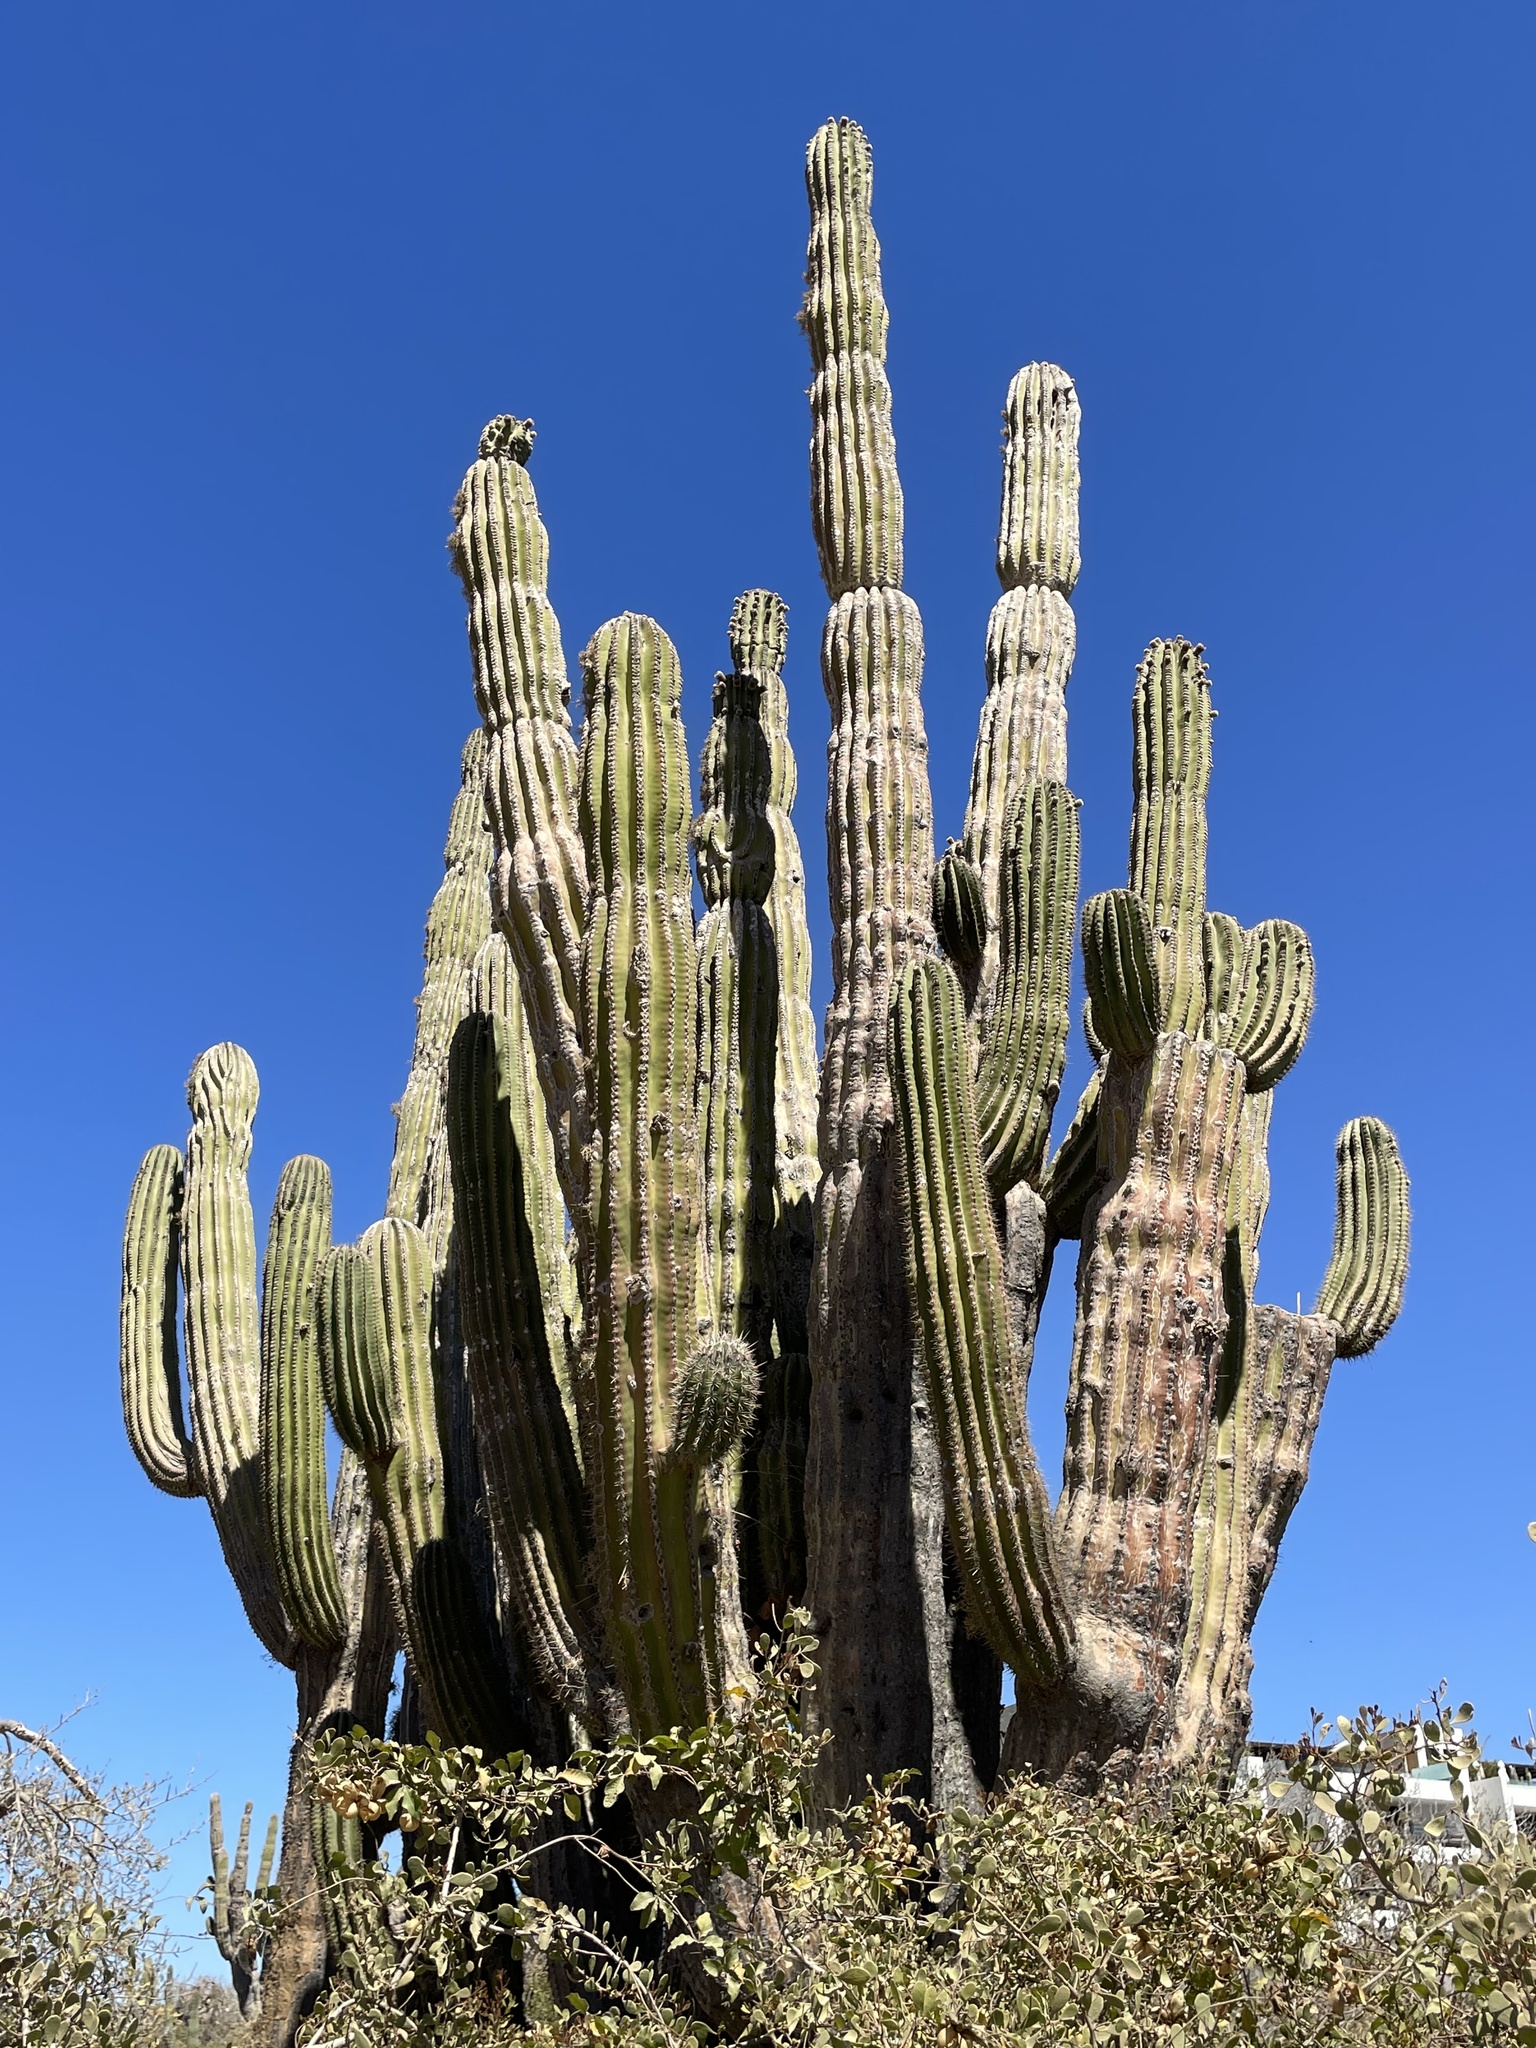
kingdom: Plantae
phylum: Tracheophyta
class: Magnoliopsida
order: Caryophyllales
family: Cactaceae
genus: Pachycereus
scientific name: Pachycereus pringlei
